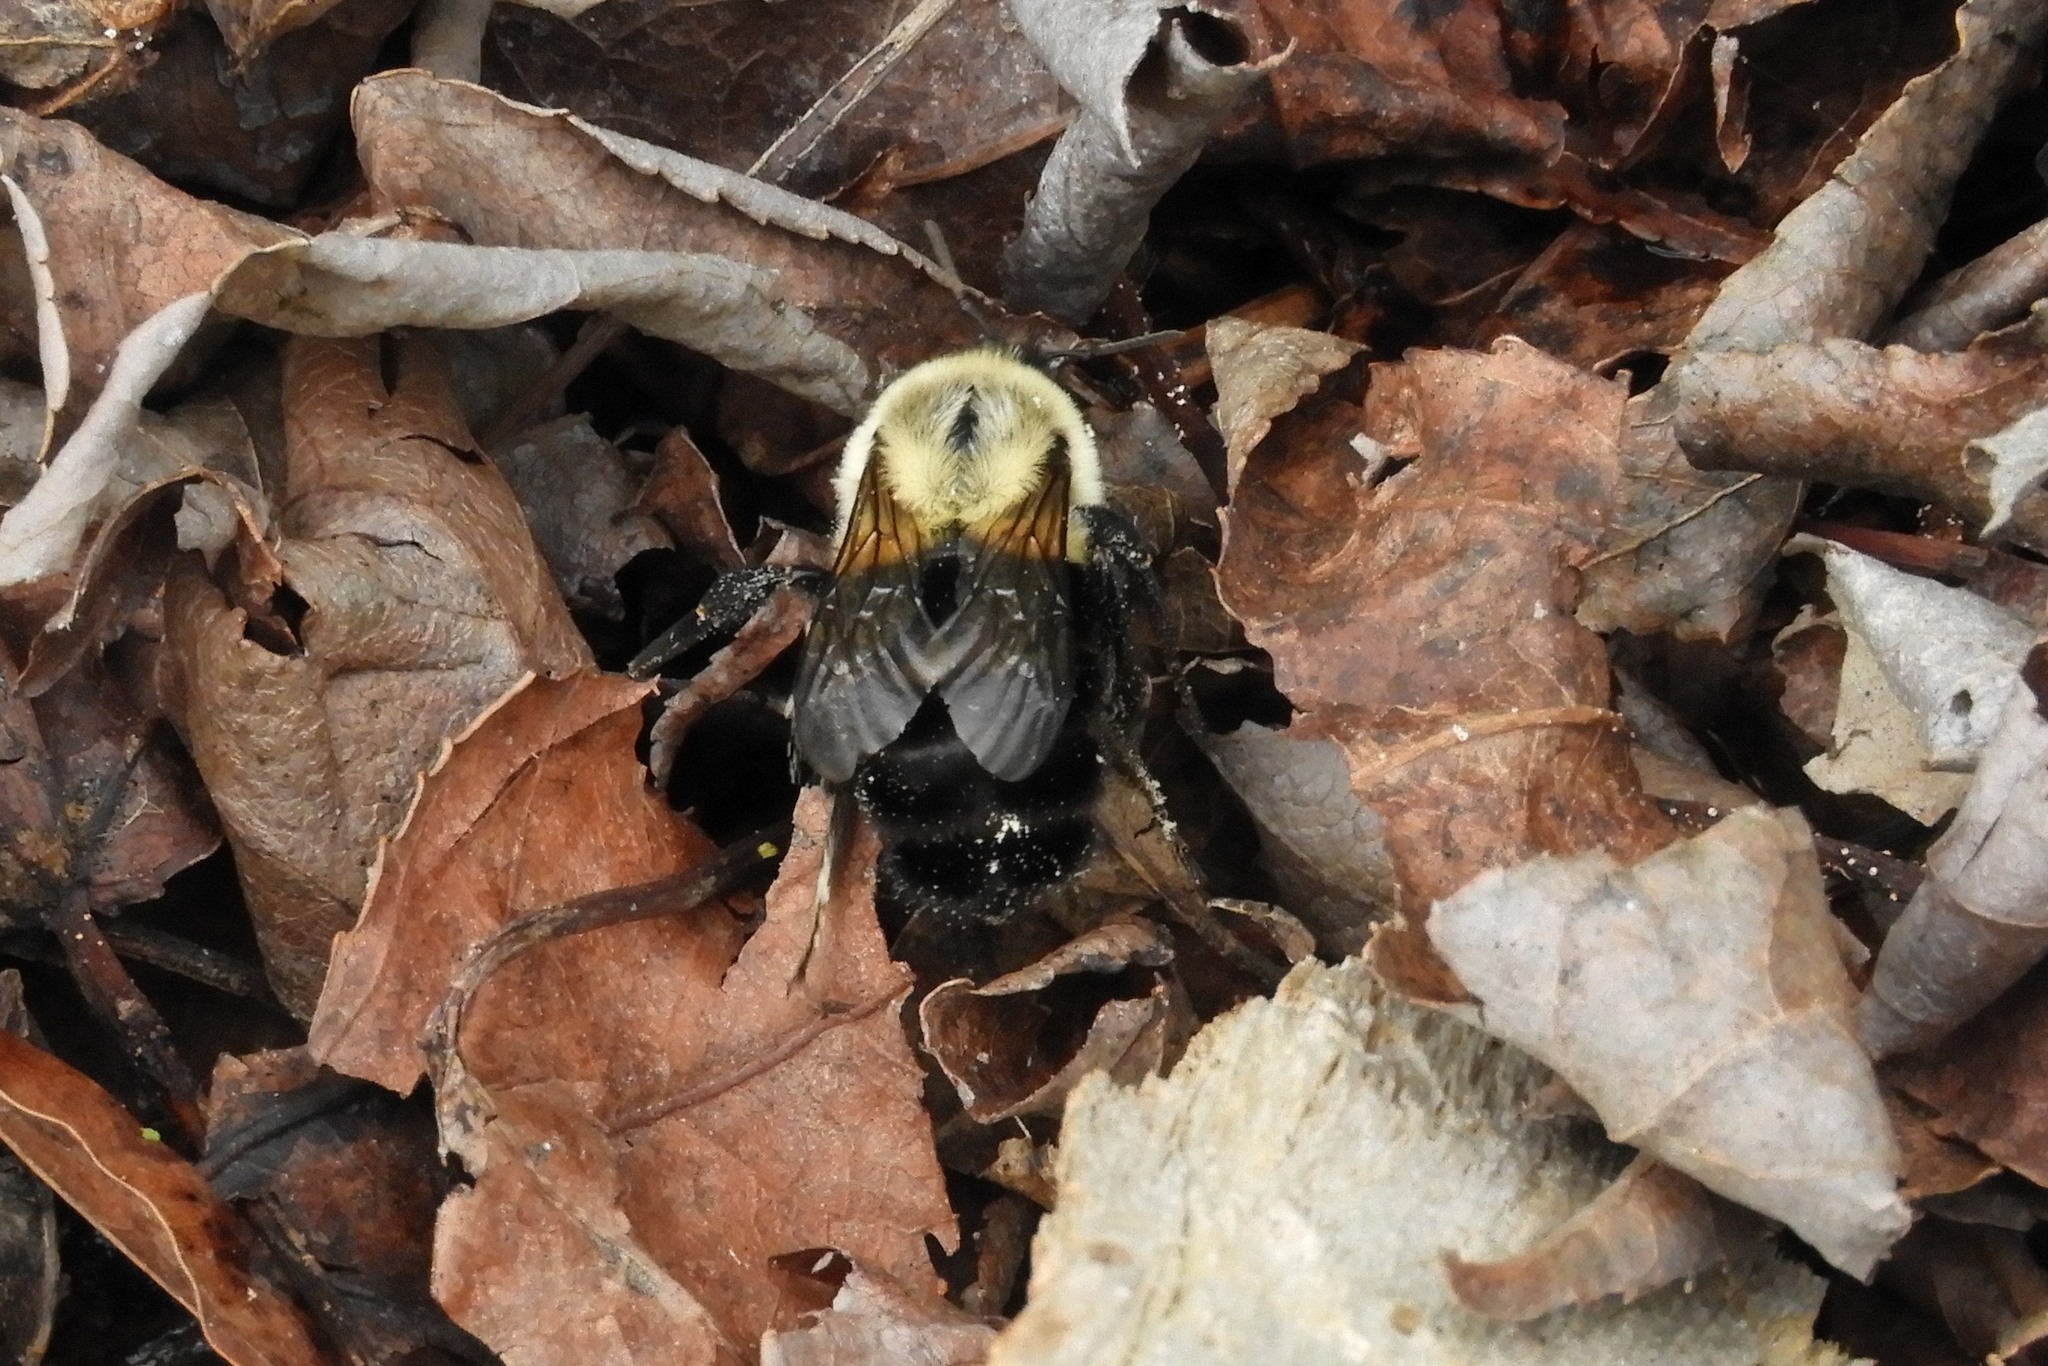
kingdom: Animalia
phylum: Arthropoda
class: Insecta
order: Hymenoptera
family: Apidae
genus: Bombus
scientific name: Bombus impatiens
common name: Common eastern bumble bee
